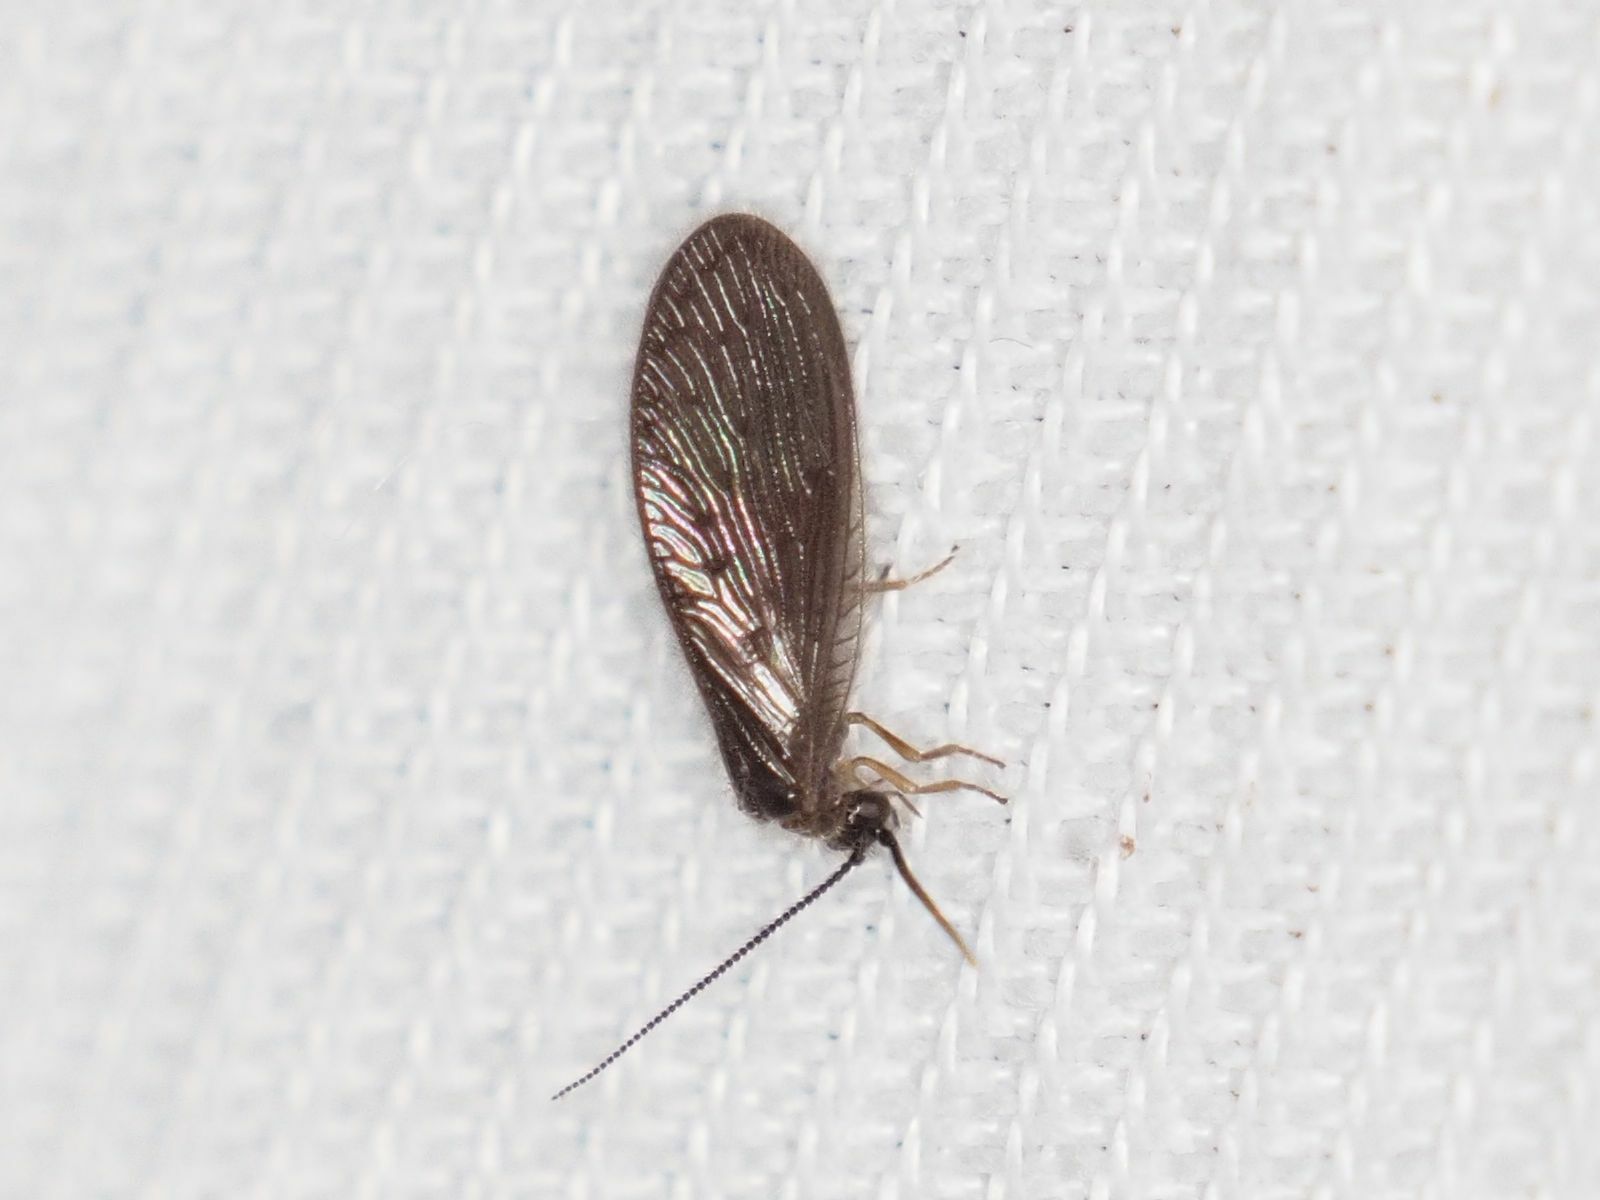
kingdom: Animalia
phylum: Arthropoda
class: Insecta
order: Neuroptera
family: Sisyridae
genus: Sisyra
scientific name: Sisyra nigra
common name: Black spongillafly
